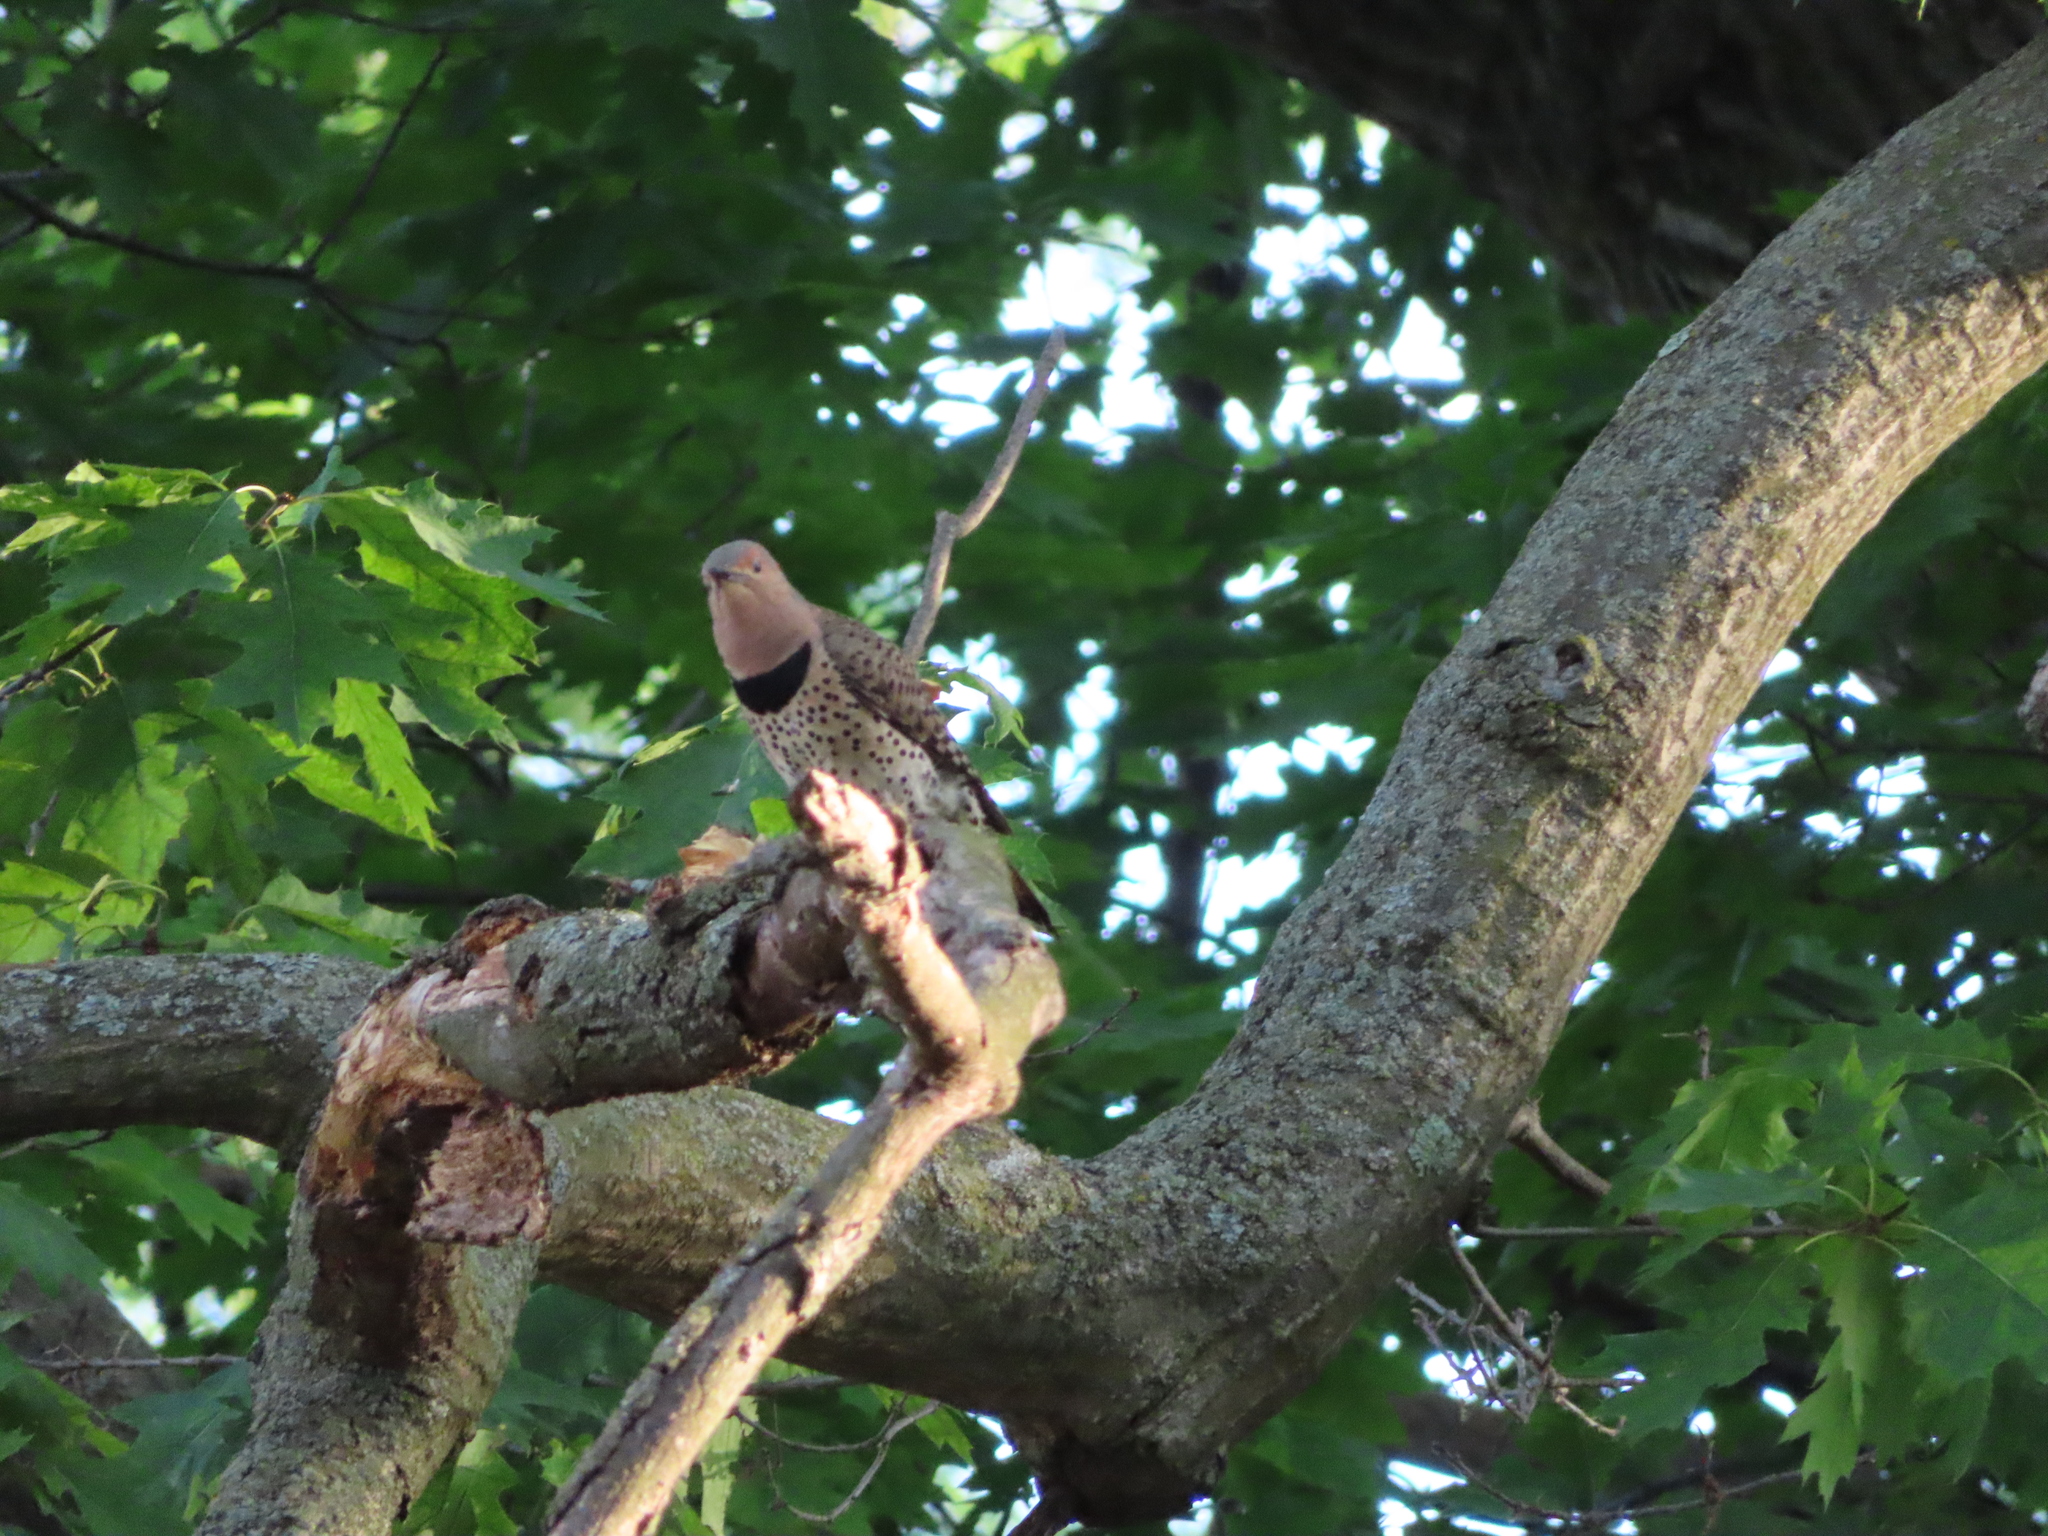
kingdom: Animalia
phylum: Chordata
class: Aves
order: Piciformes
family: Picidae
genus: Colaptes
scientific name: Colaptes auratus
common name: Northern flicker
